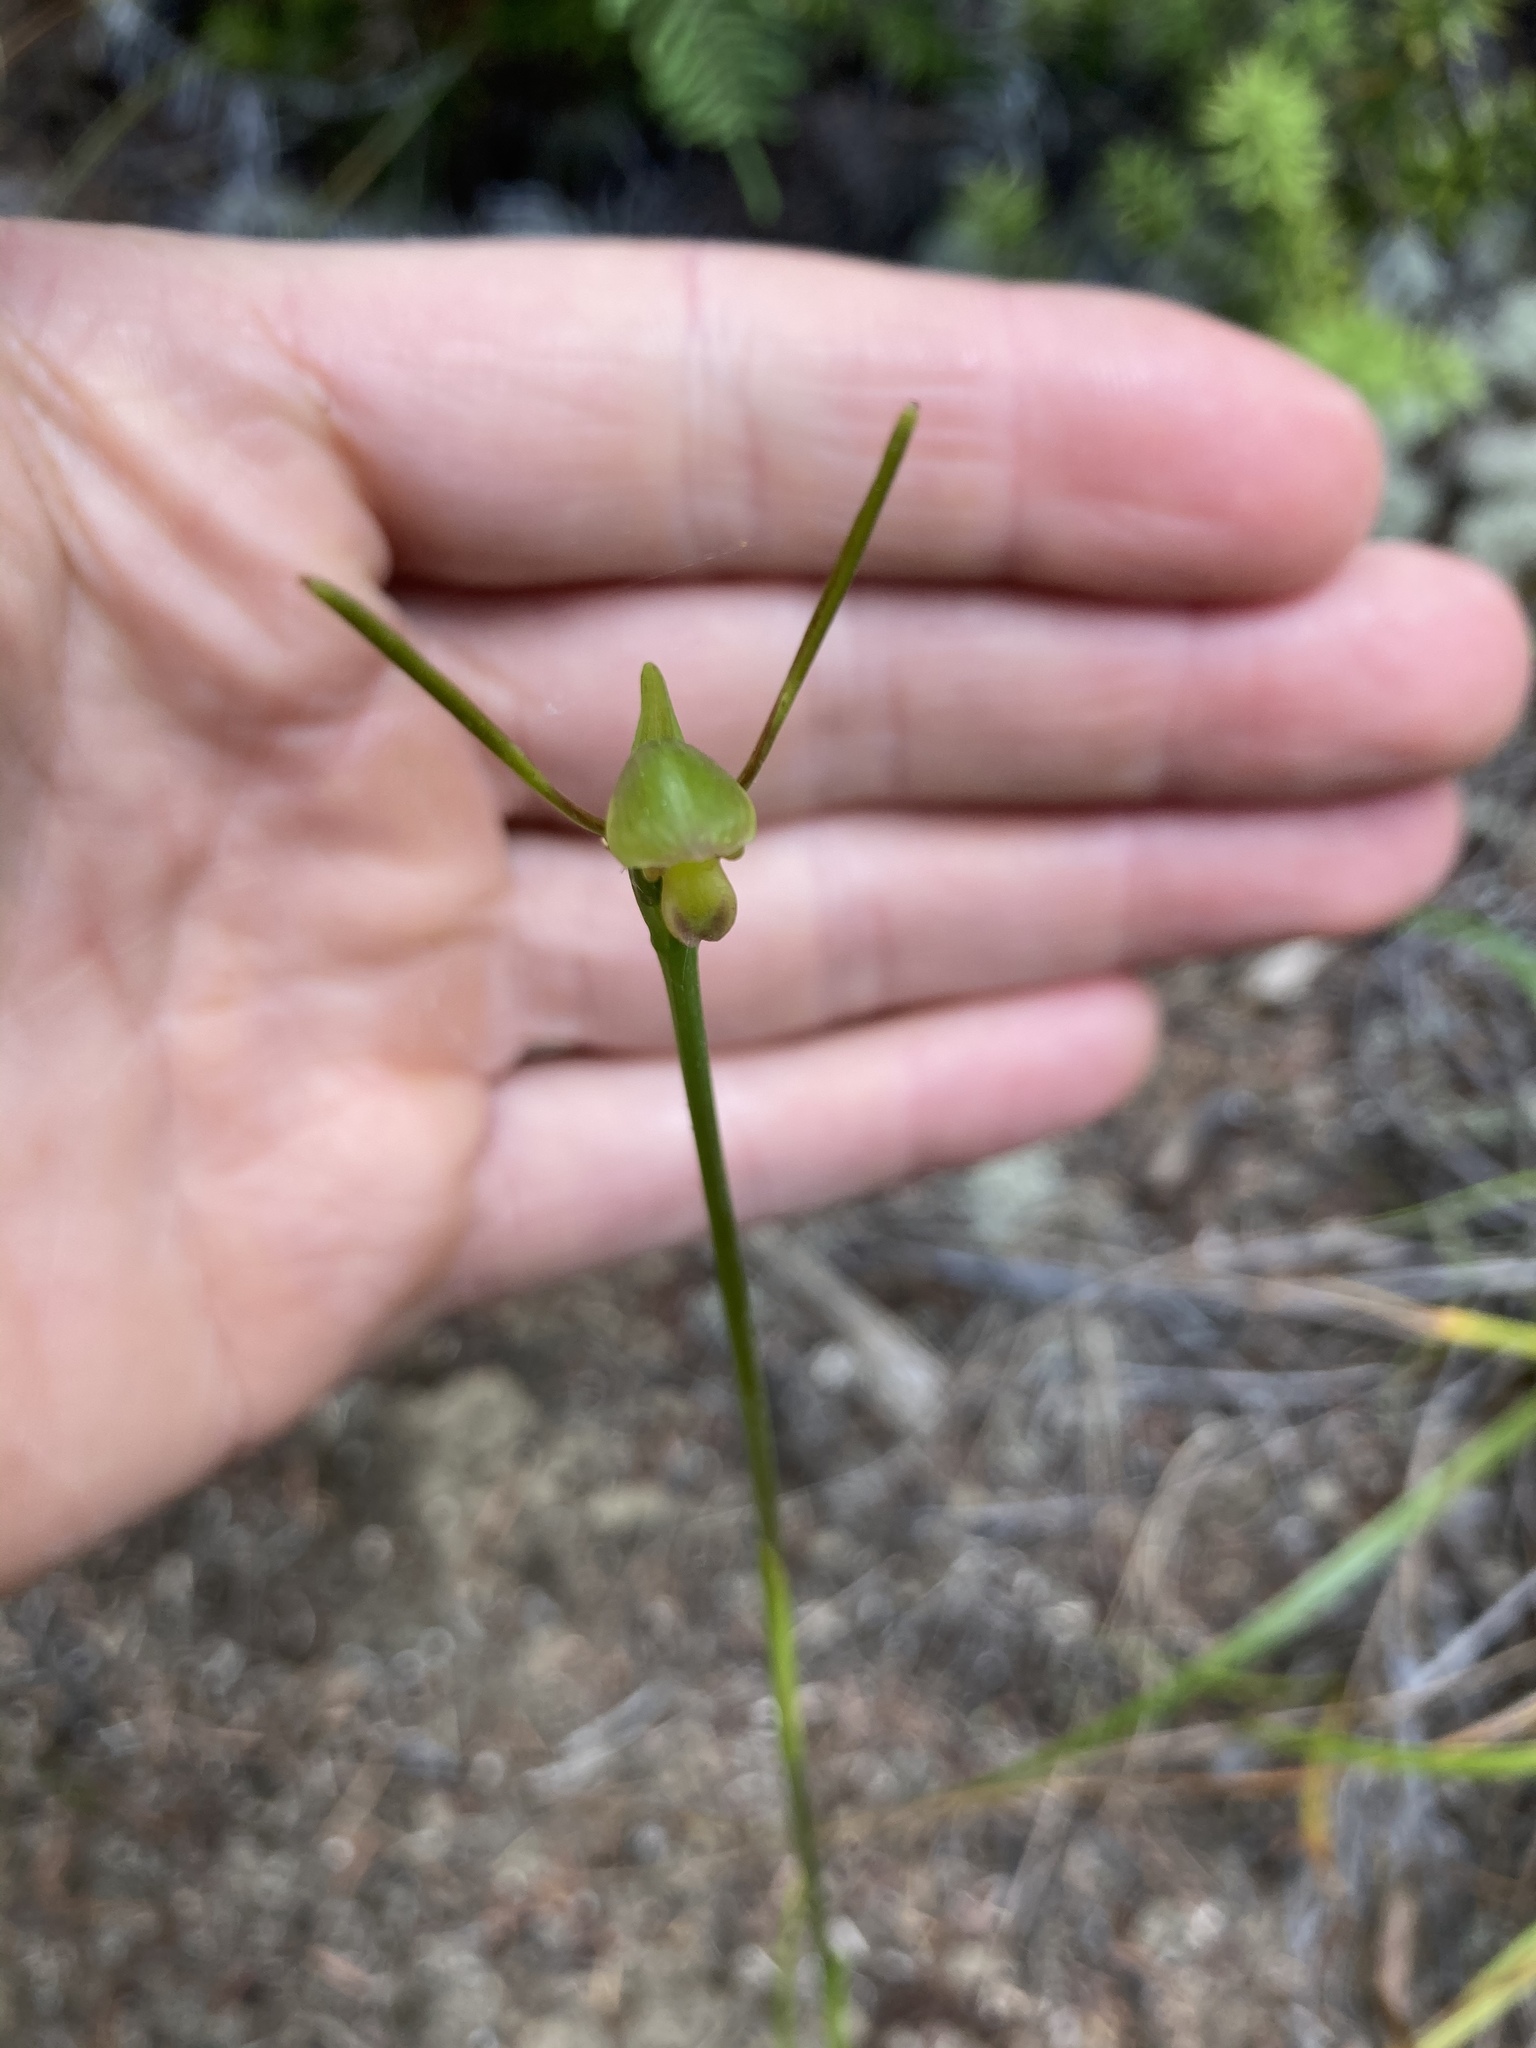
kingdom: Plantae
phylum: Tracheophyta
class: Liliopsida
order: Asparagales
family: Orchidaceae
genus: Orthoceras
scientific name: Orthoceras novae-zeelandiae
